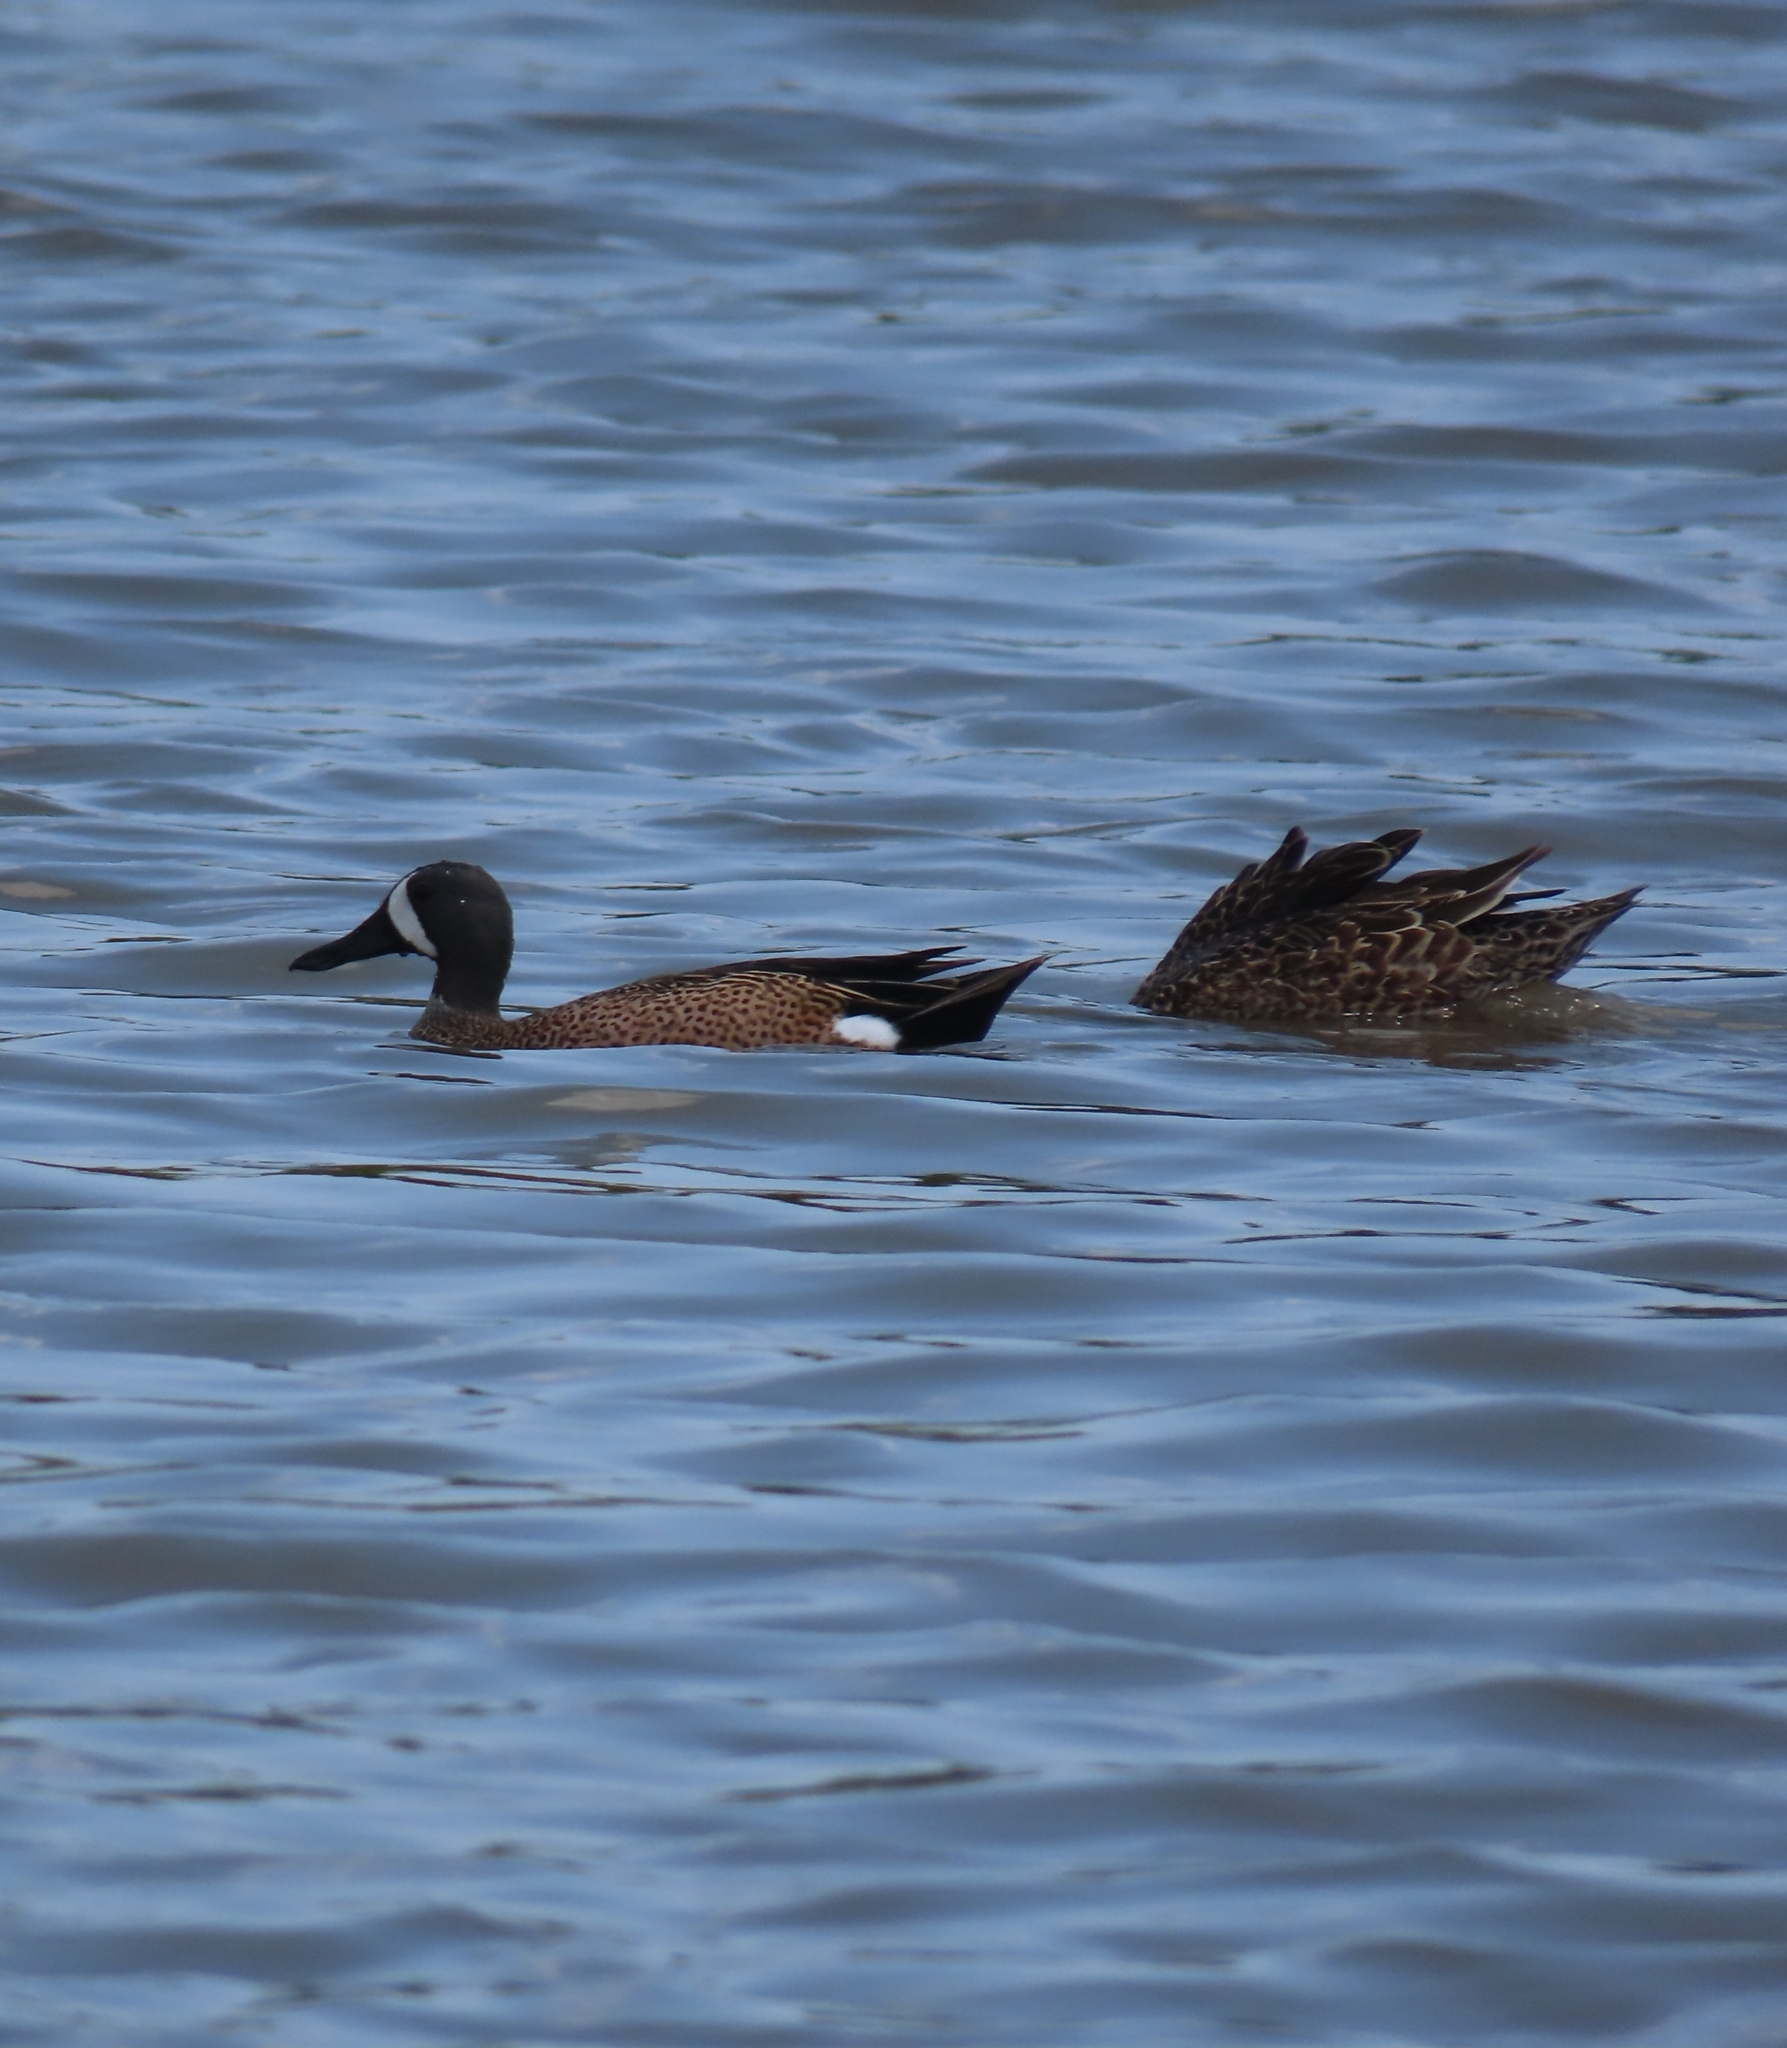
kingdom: Animalia
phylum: Chordata
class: Aves
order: Anseriformes
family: Anatidae
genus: Spatula
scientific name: Spatula discors
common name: Blue-winged teal
